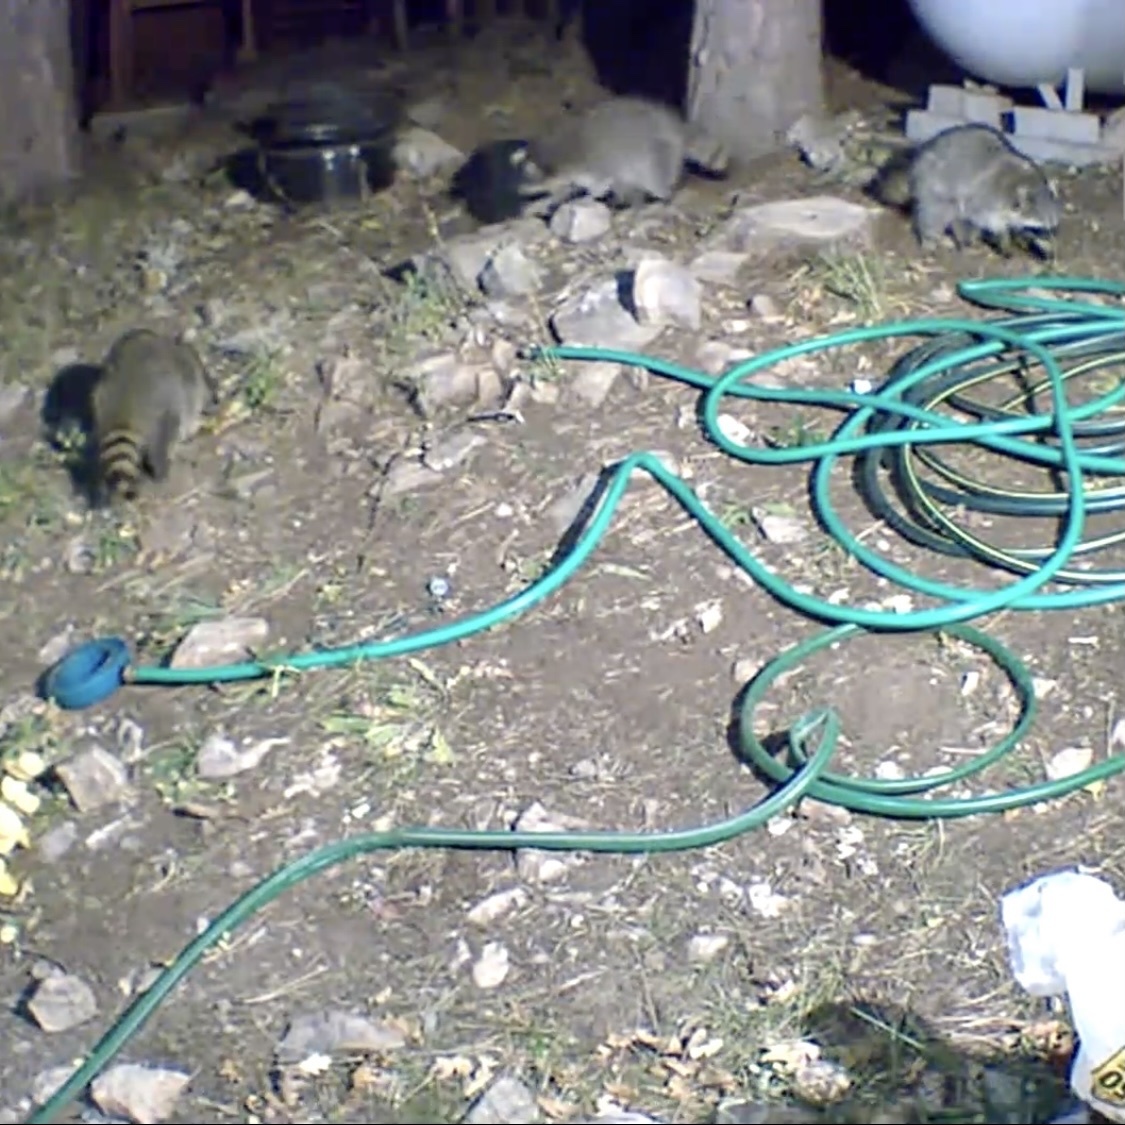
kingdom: Animalia
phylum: Chordata
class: Mammalia
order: Carnivora
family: Procyonidae
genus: Procyon
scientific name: Procyon lotor
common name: Raccoon
